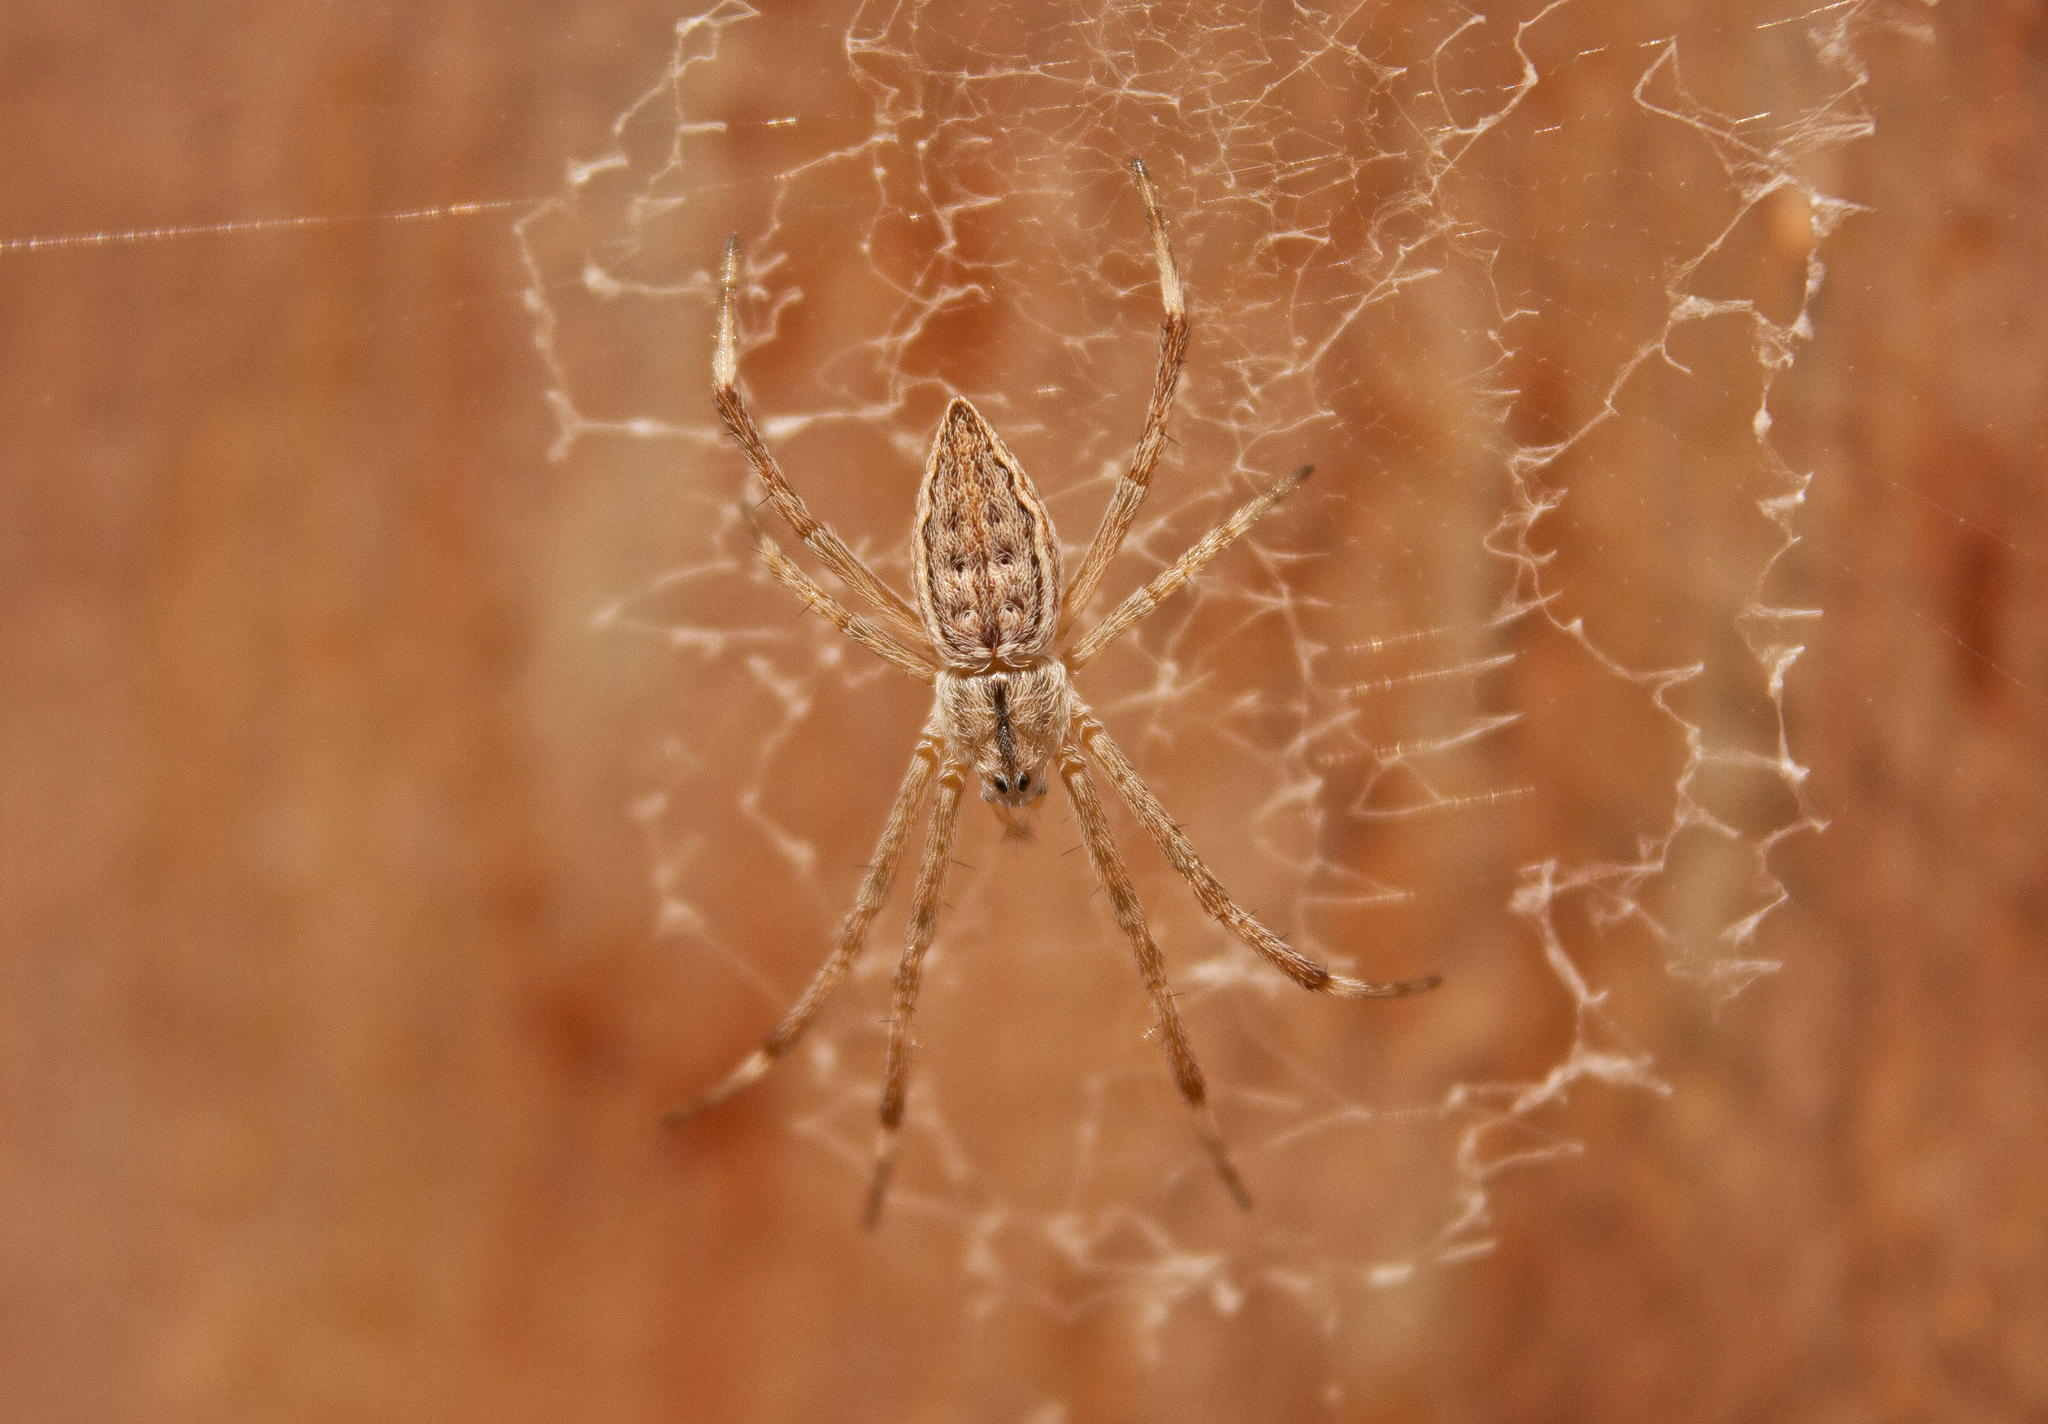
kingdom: Animalia
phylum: Arthropoda
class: Arachnida
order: Araneae
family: Araneidae
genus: Argiope
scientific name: Argiope ocyaloides
